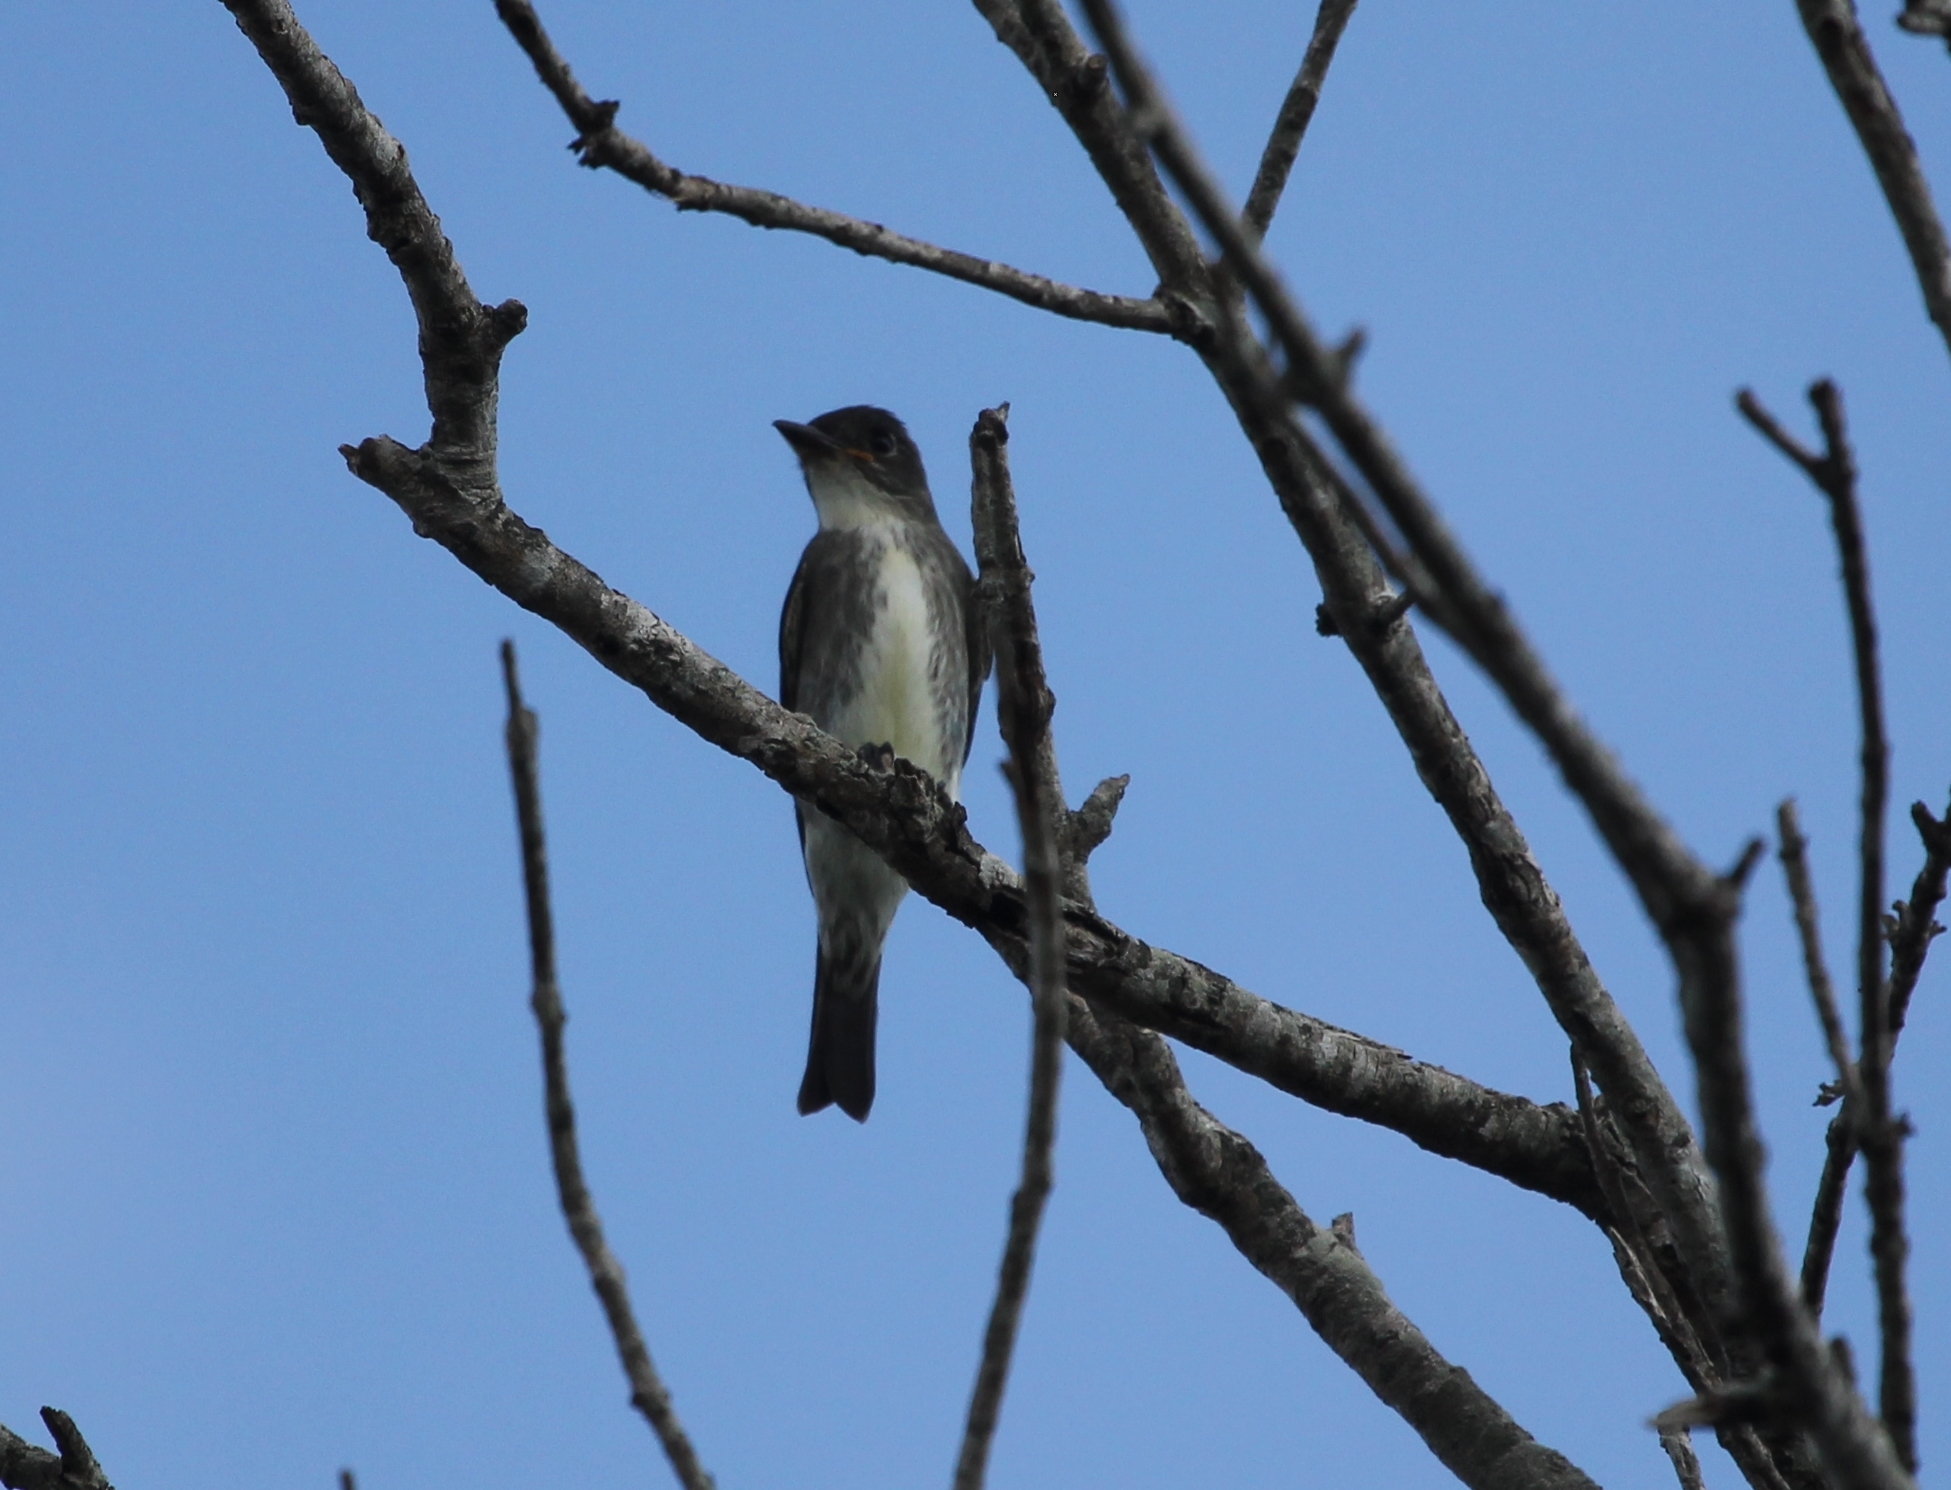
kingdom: Animalia
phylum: Chordata
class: Aves
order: Passeriformes
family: Tyrannidae
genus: Contopus
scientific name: Contopus cooperi
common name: Olive-sided flycatcher
